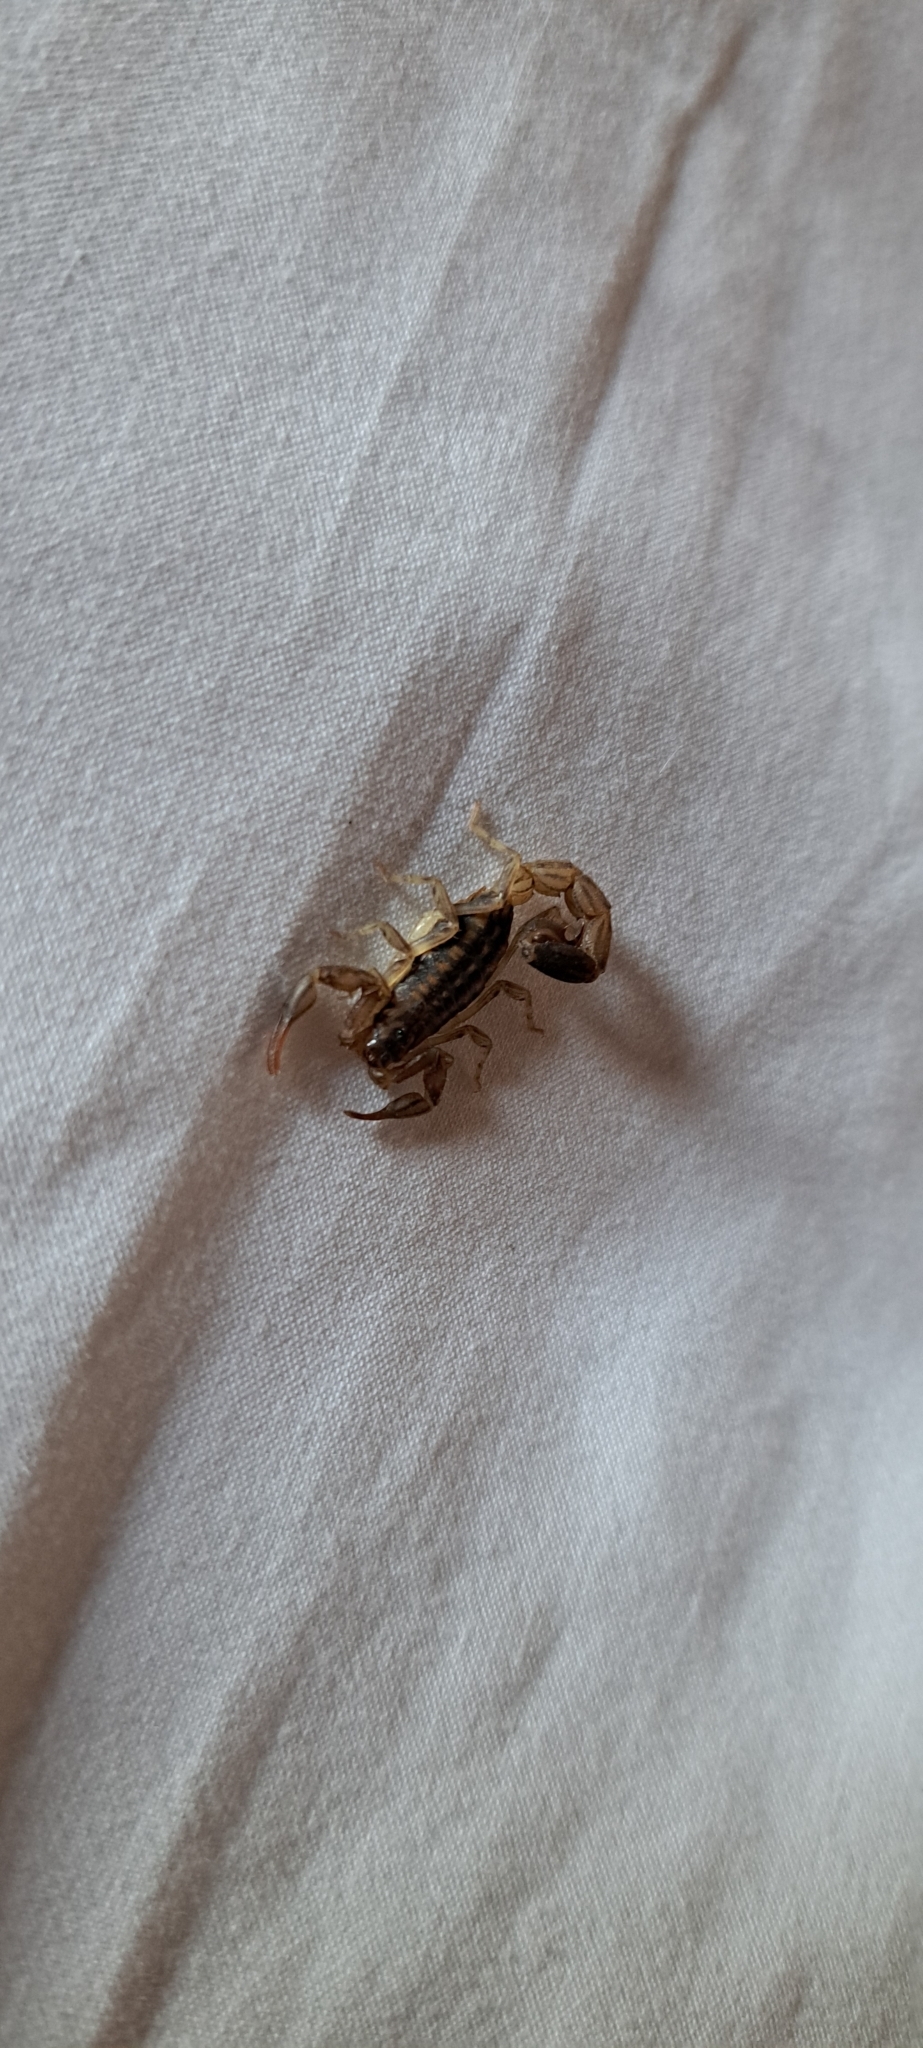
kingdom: Animalia
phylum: Arthropoda
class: Arachnida
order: Scorpiones
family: Buthidae
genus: Uroplectes
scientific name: Uroplectes lineatus
